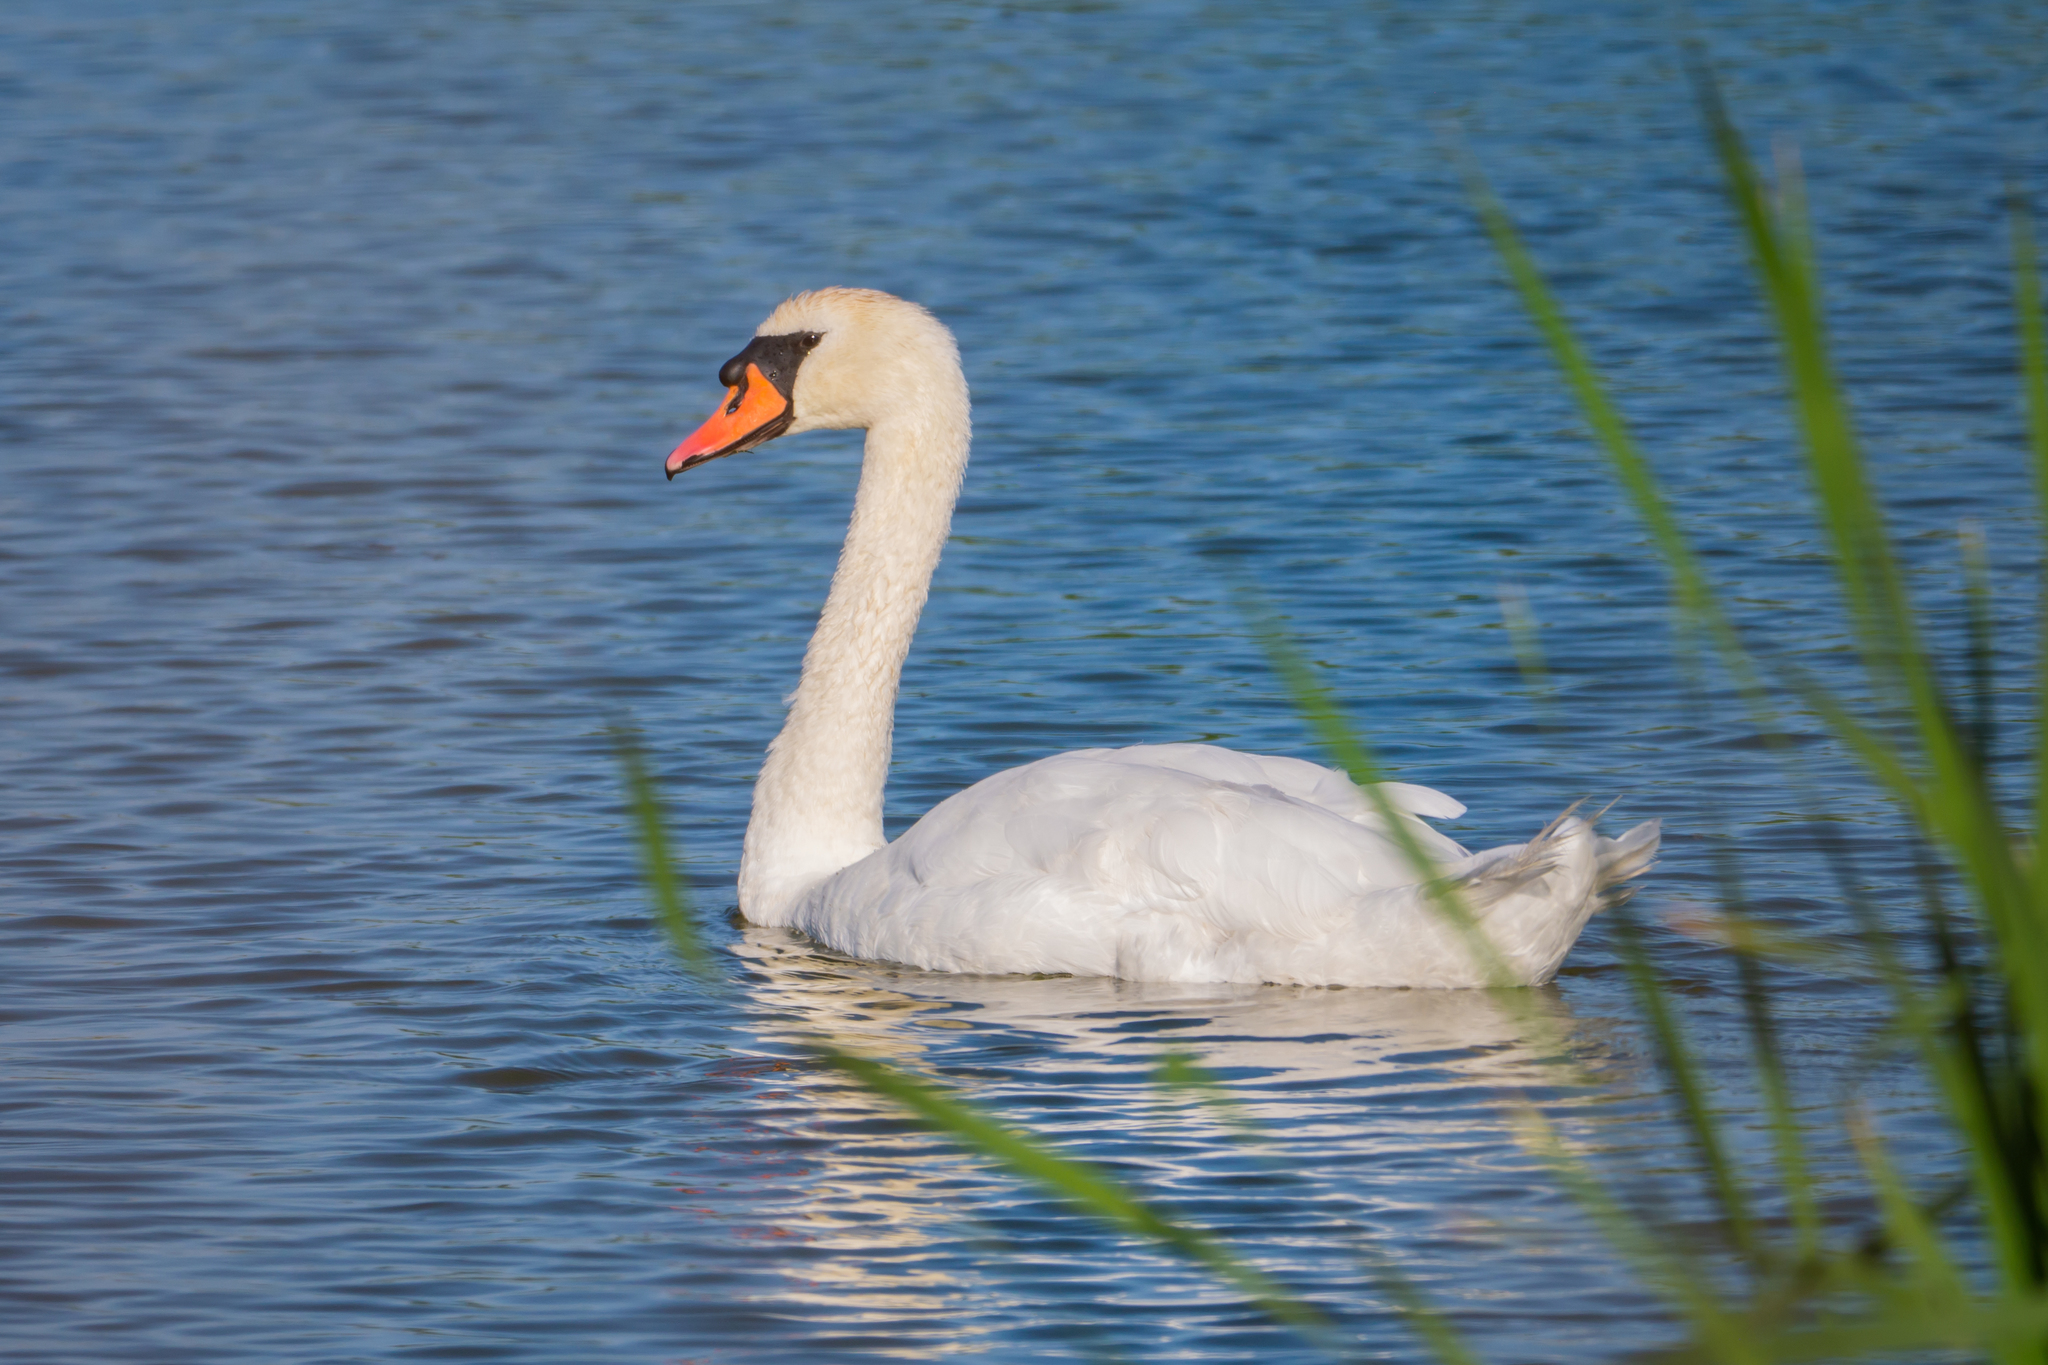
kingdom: Animalia
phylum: Chordata
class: Aves
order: Anseriformes
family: Anatidae
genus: Cygnus
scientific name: Cygnus olor
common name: Mute swan
